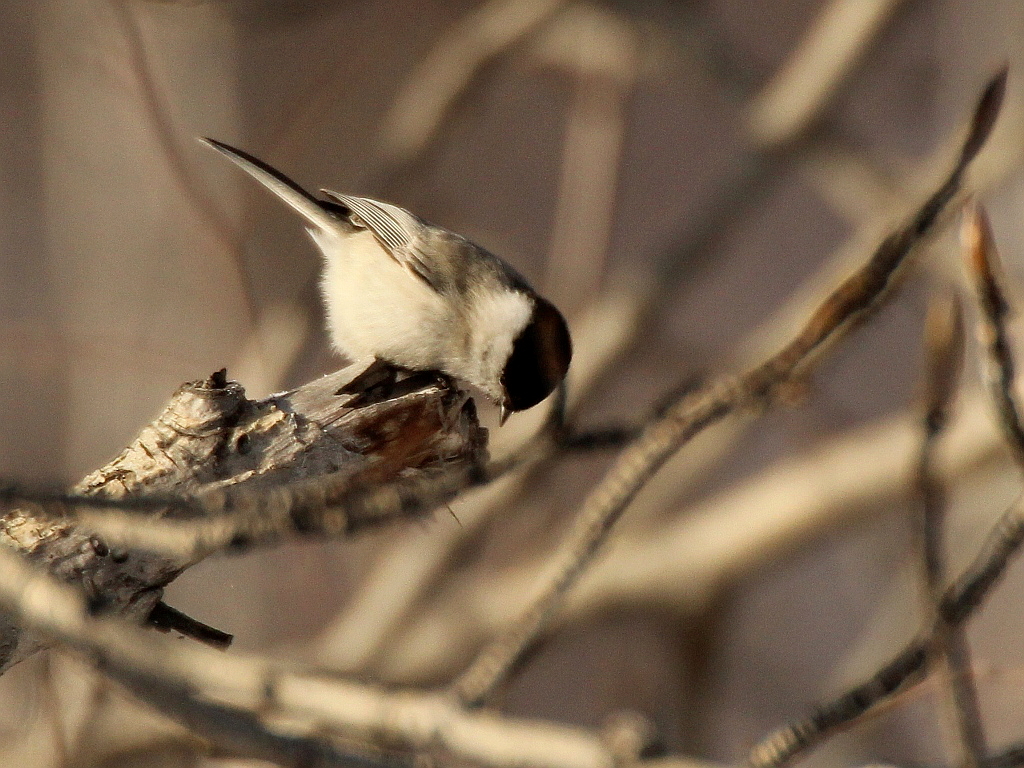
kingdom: Animalia
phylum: Chordata
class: Aves
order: Passeriformes
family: Paridae
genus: Poecile
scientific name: Poecile palustris
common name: Marsh tit
